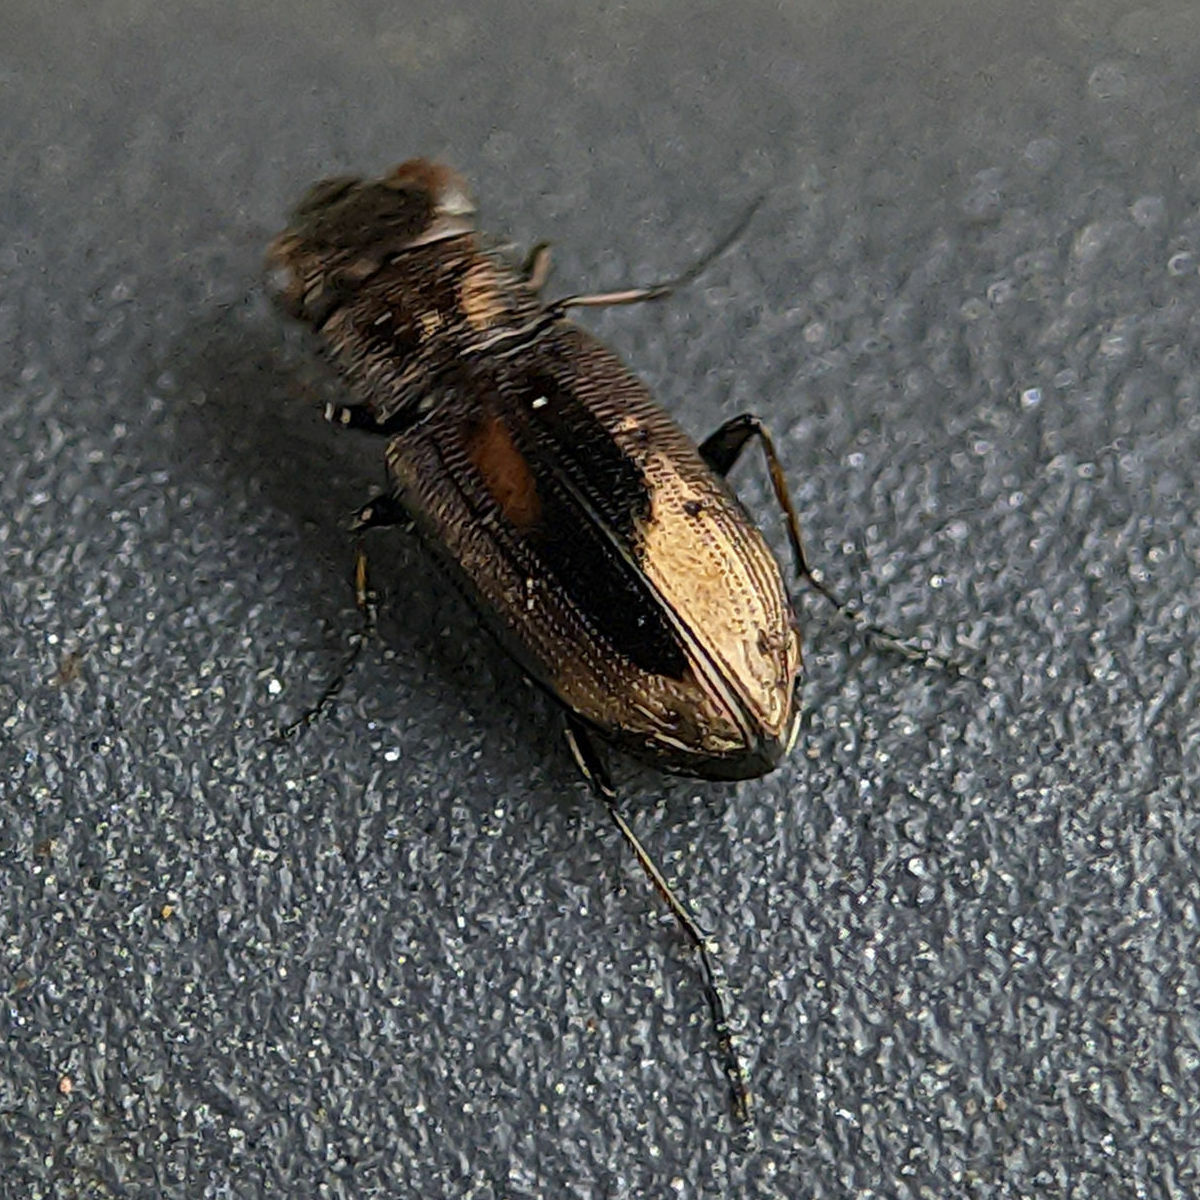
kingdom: Animalia
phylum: Arthropoda
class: Insecta
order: Coleoptera
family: Carabidae
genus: Notiophilus
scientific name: Notiophilus quadripunctatus
